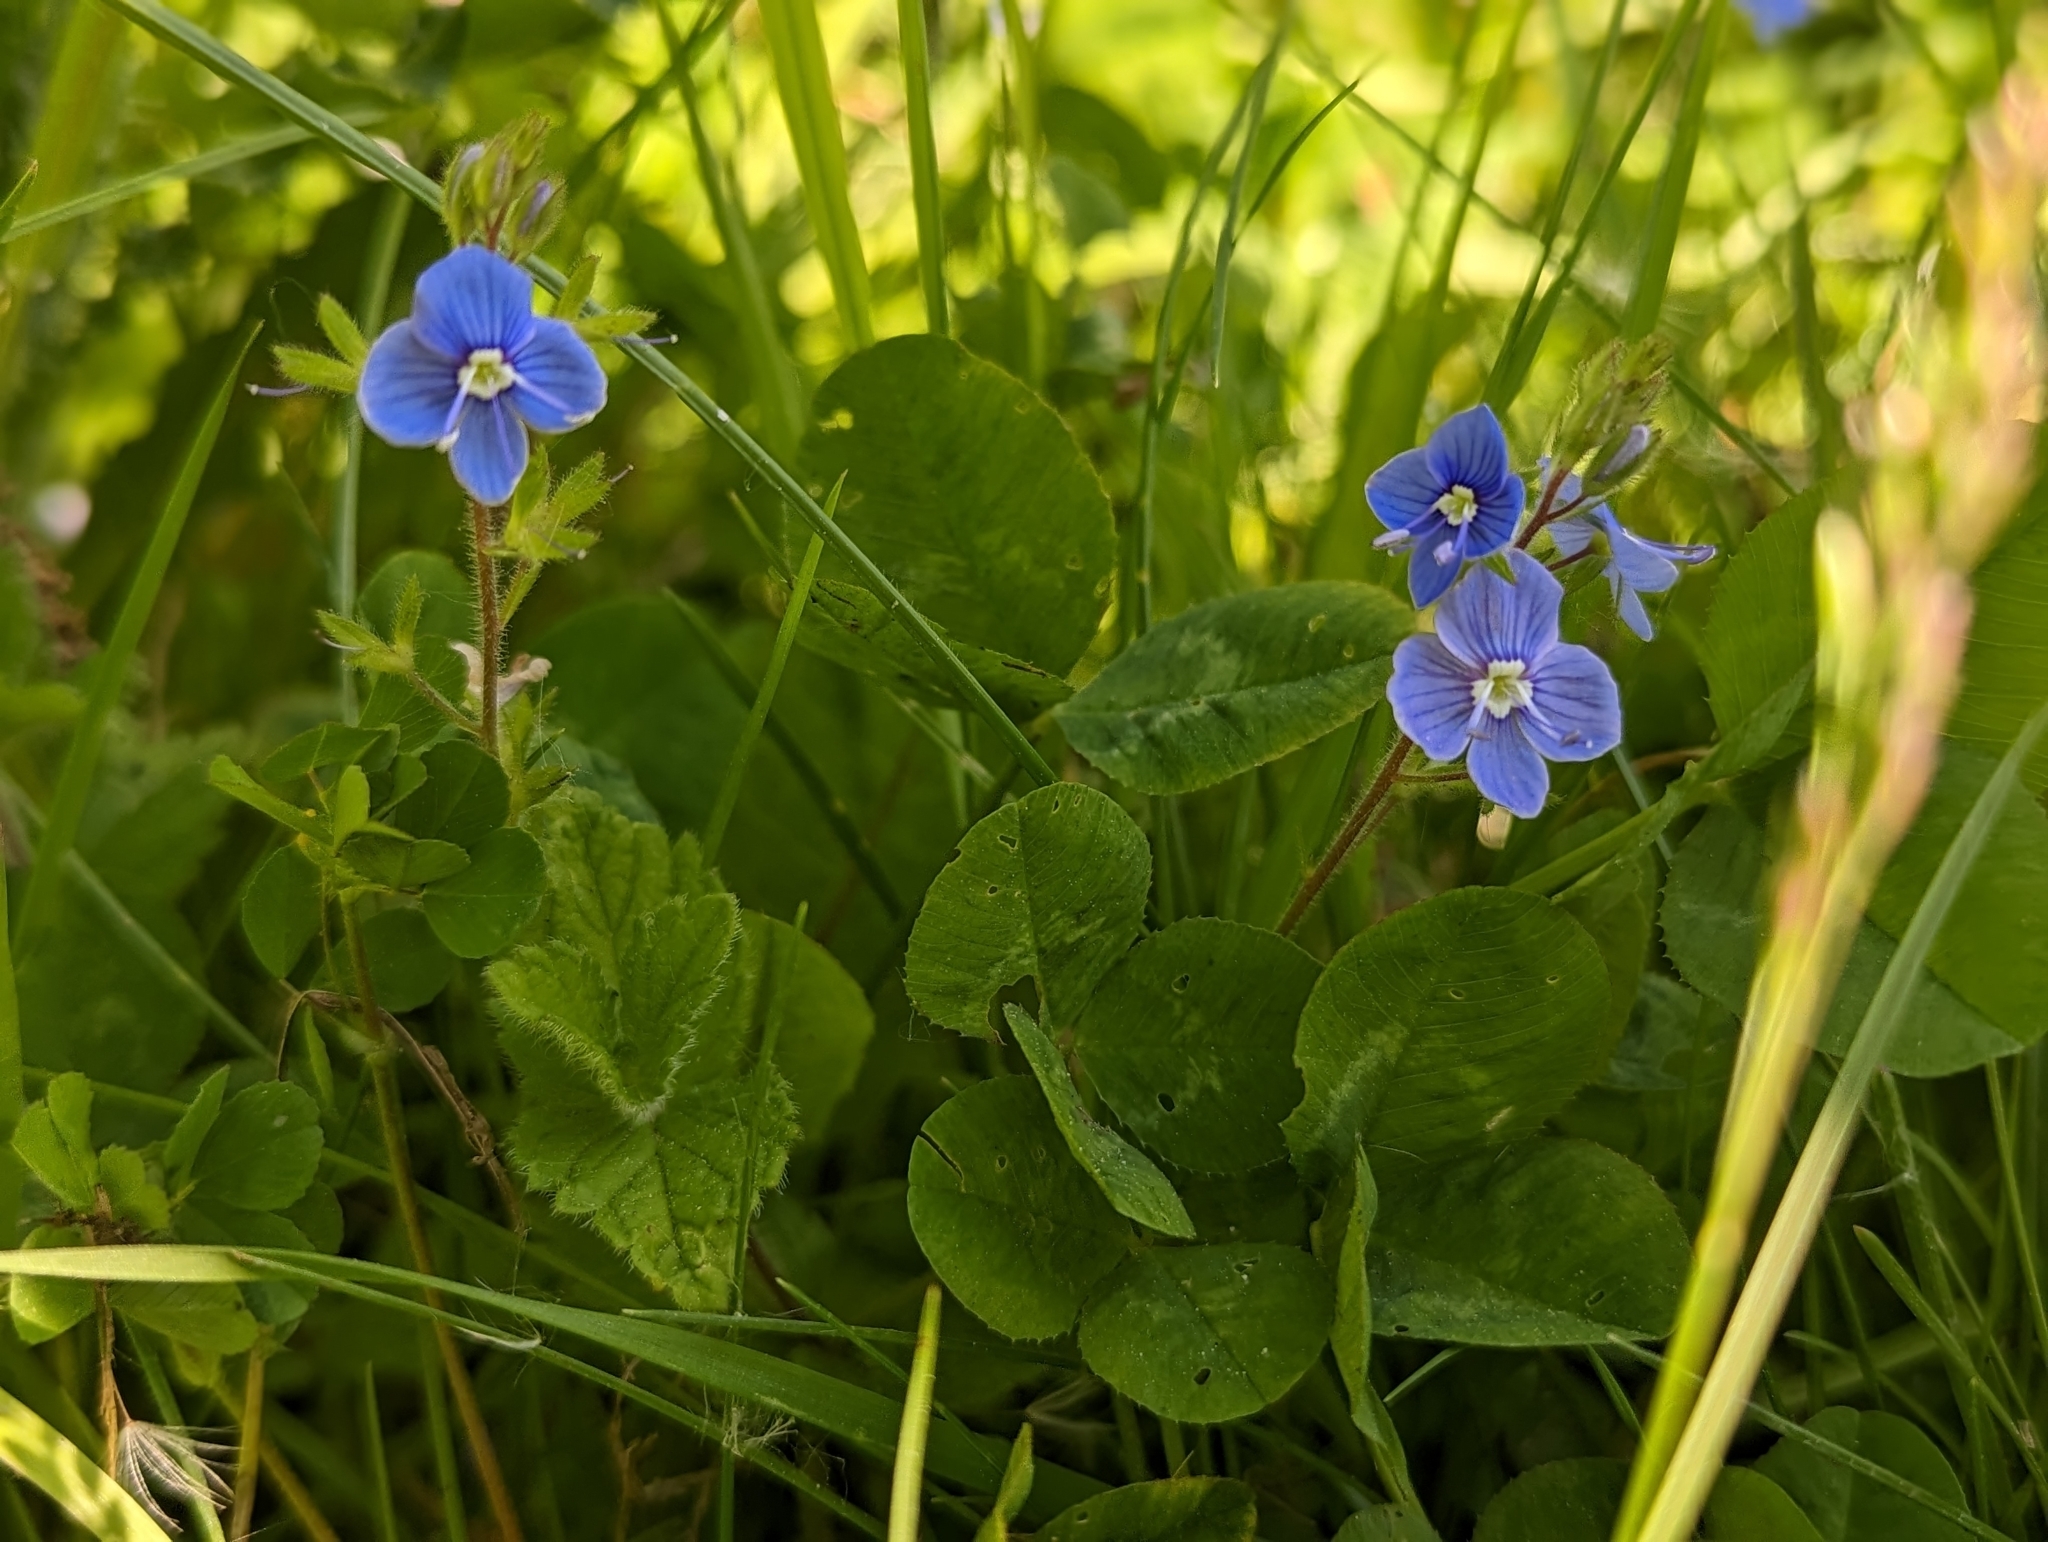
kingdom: Plantae
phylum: Tracheophyta
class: Magnoliopsida
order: Lamiales
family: Plantaginaceae
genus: Veronica
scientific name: Veronica chamaedrys
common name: Germander speedwell
